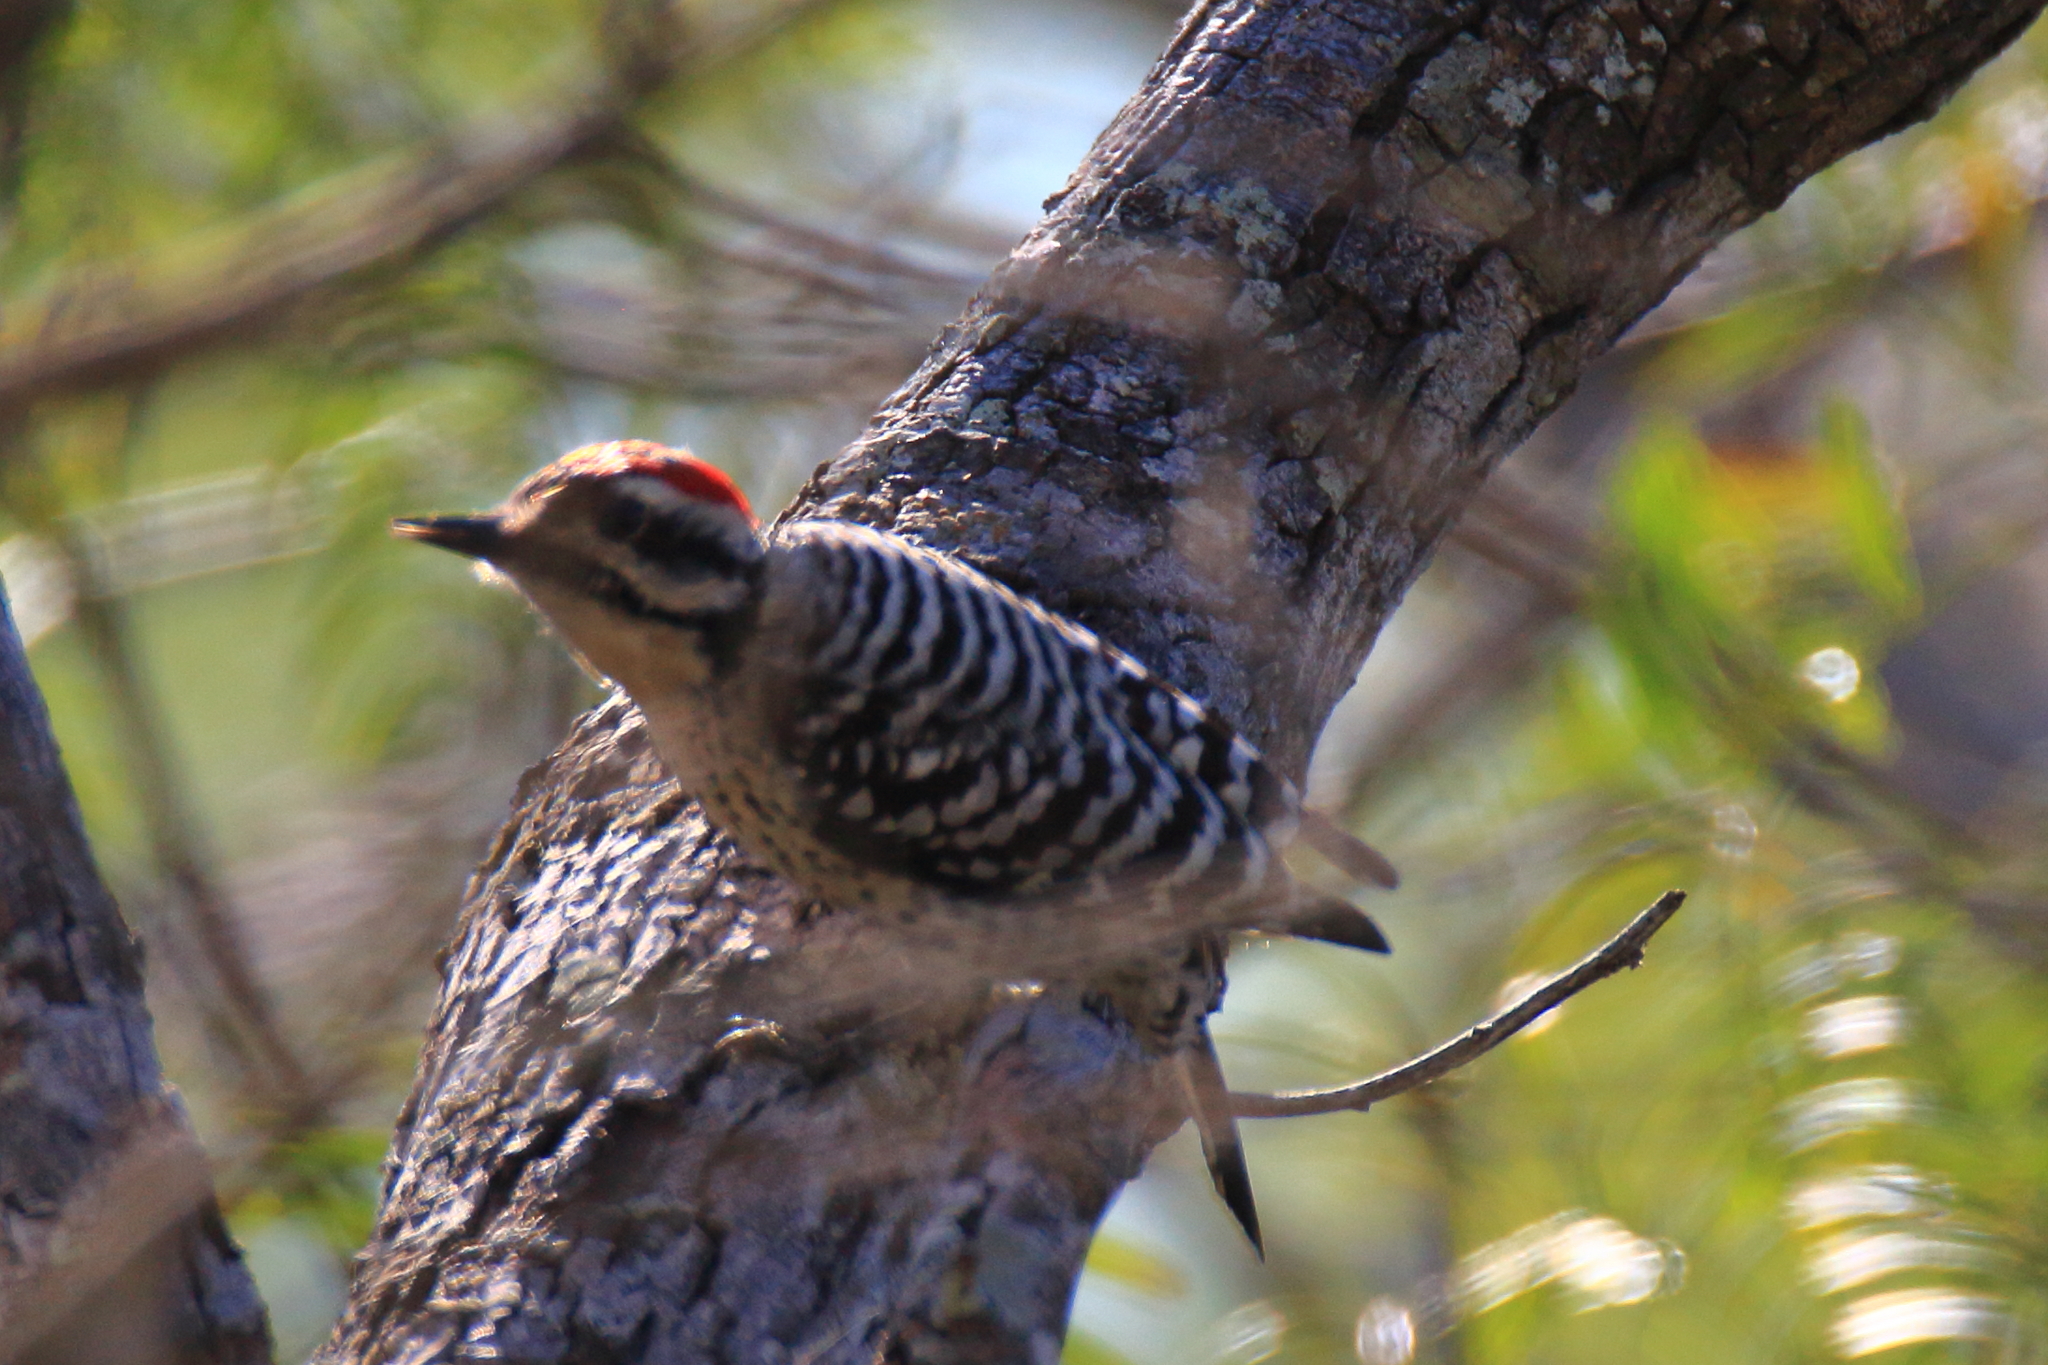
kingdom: Animalia
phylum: Chordata
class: Aves
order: Piciformes
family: Picidae
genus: Dryobates
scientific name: Dryobates scalaris
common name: Ladder-backed woodpecker
